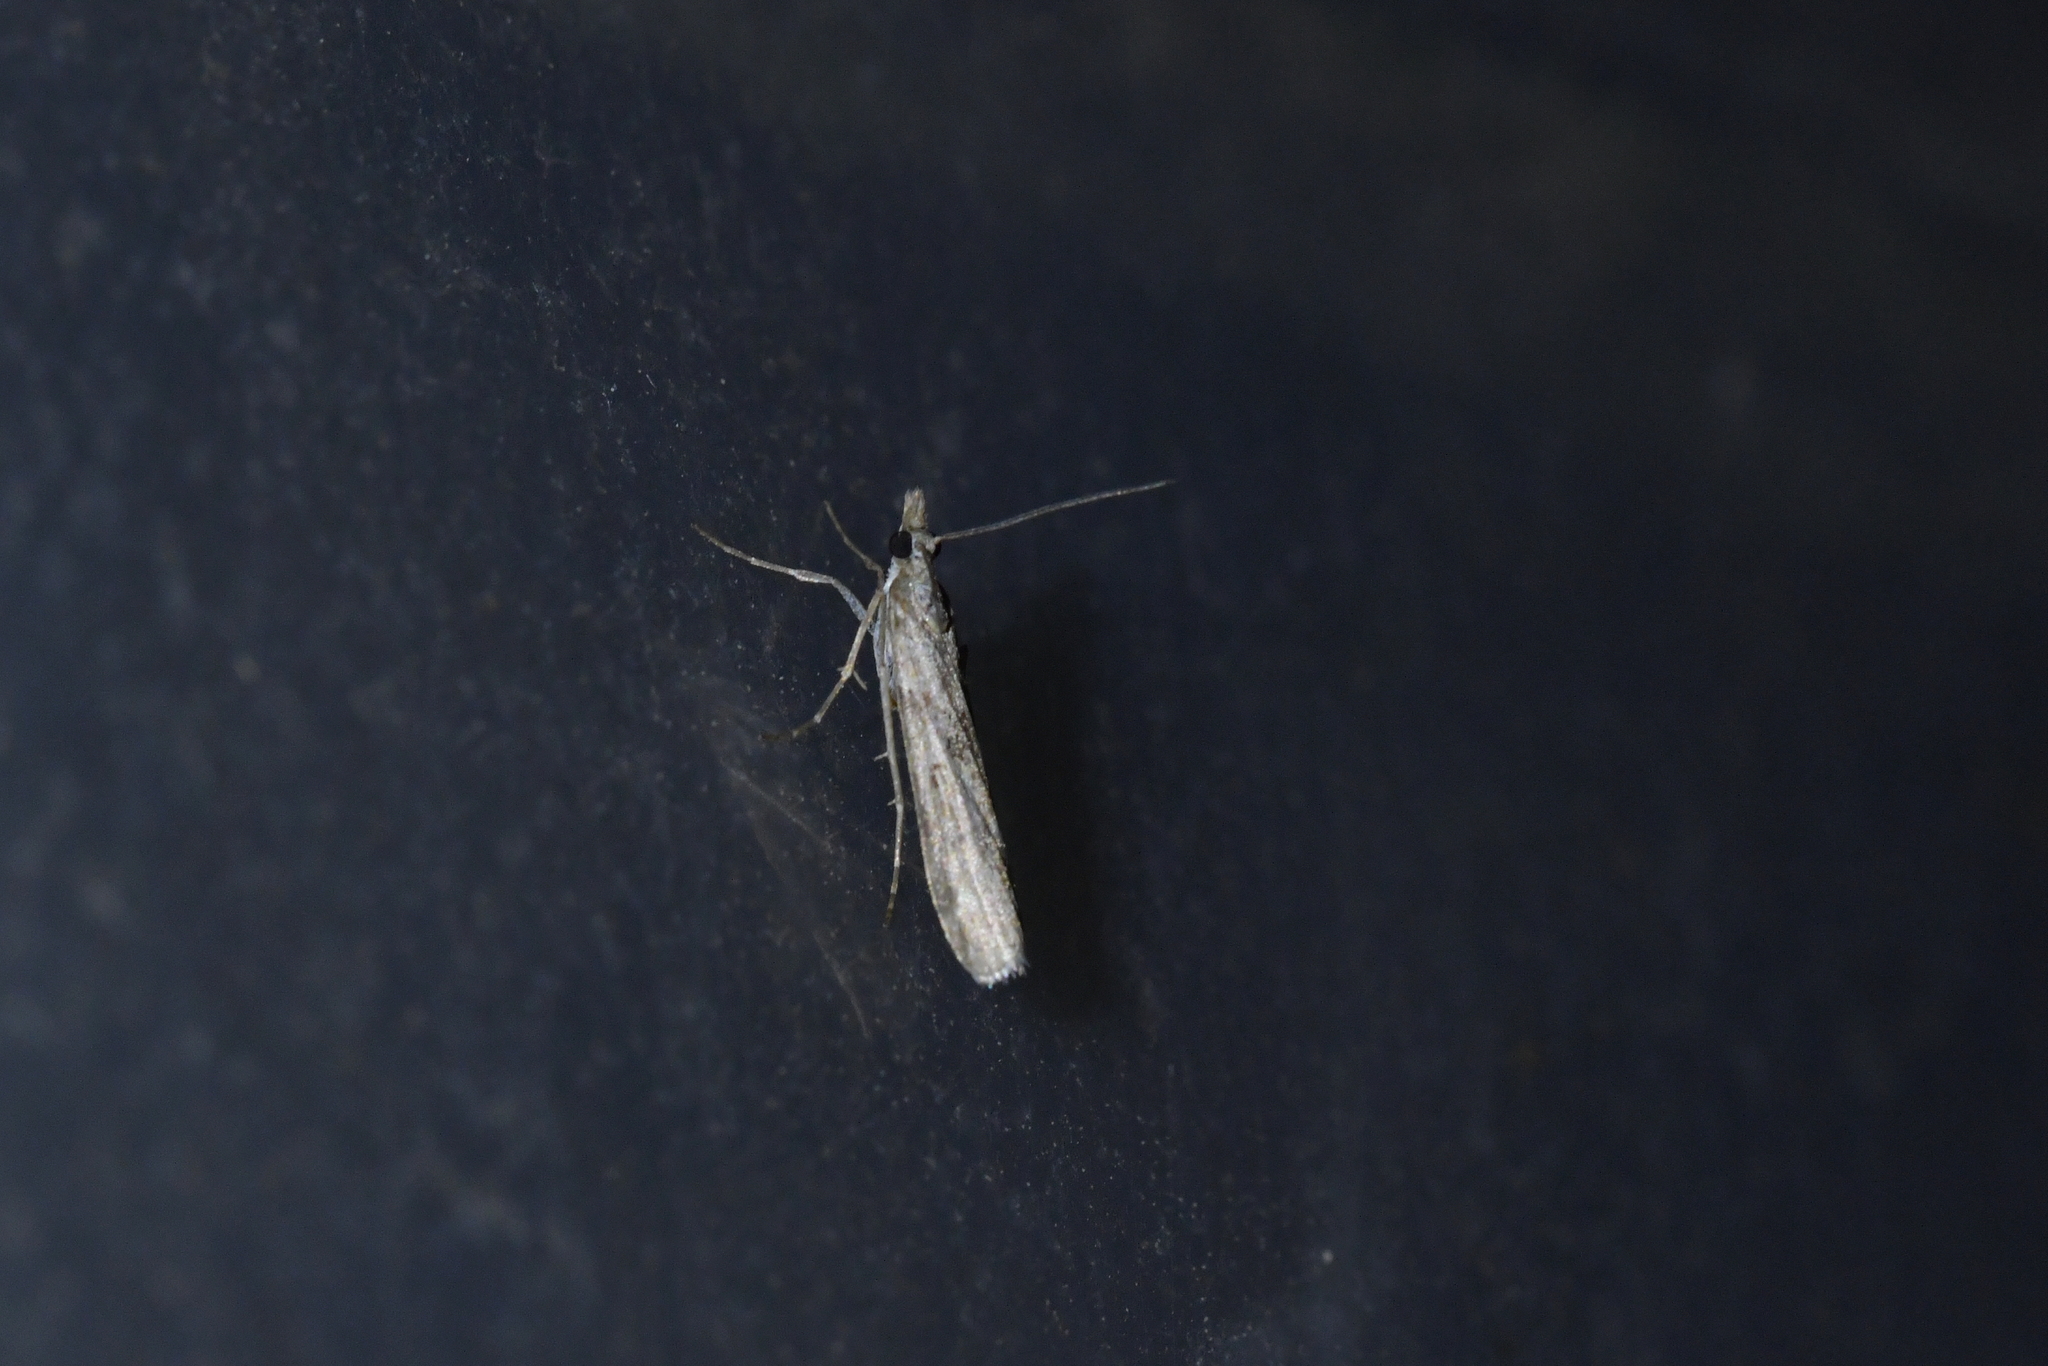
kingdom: Animalia
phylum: Arthropoda
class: Insecta
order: Lepidoptera
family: Crambidae
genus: Eudonia
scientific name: Eudonia leptalea
